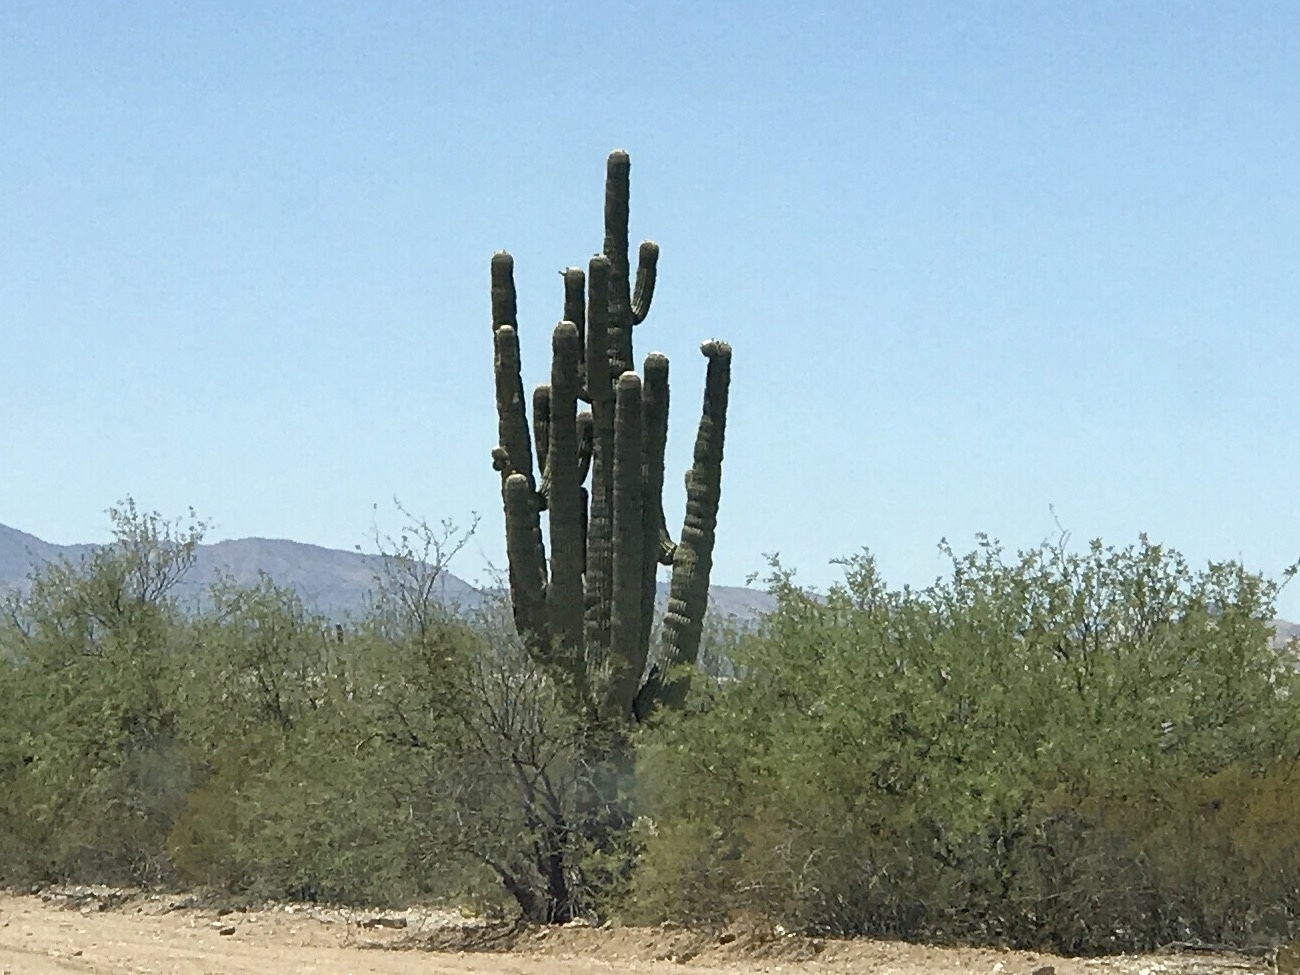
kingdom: Plantae
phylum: Tracheophyta
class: Magnoliopsida
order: Caryophyllales
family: Cactaceae
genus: Carnegiea
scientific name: Carnegiea gigantea
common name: Saguaro
